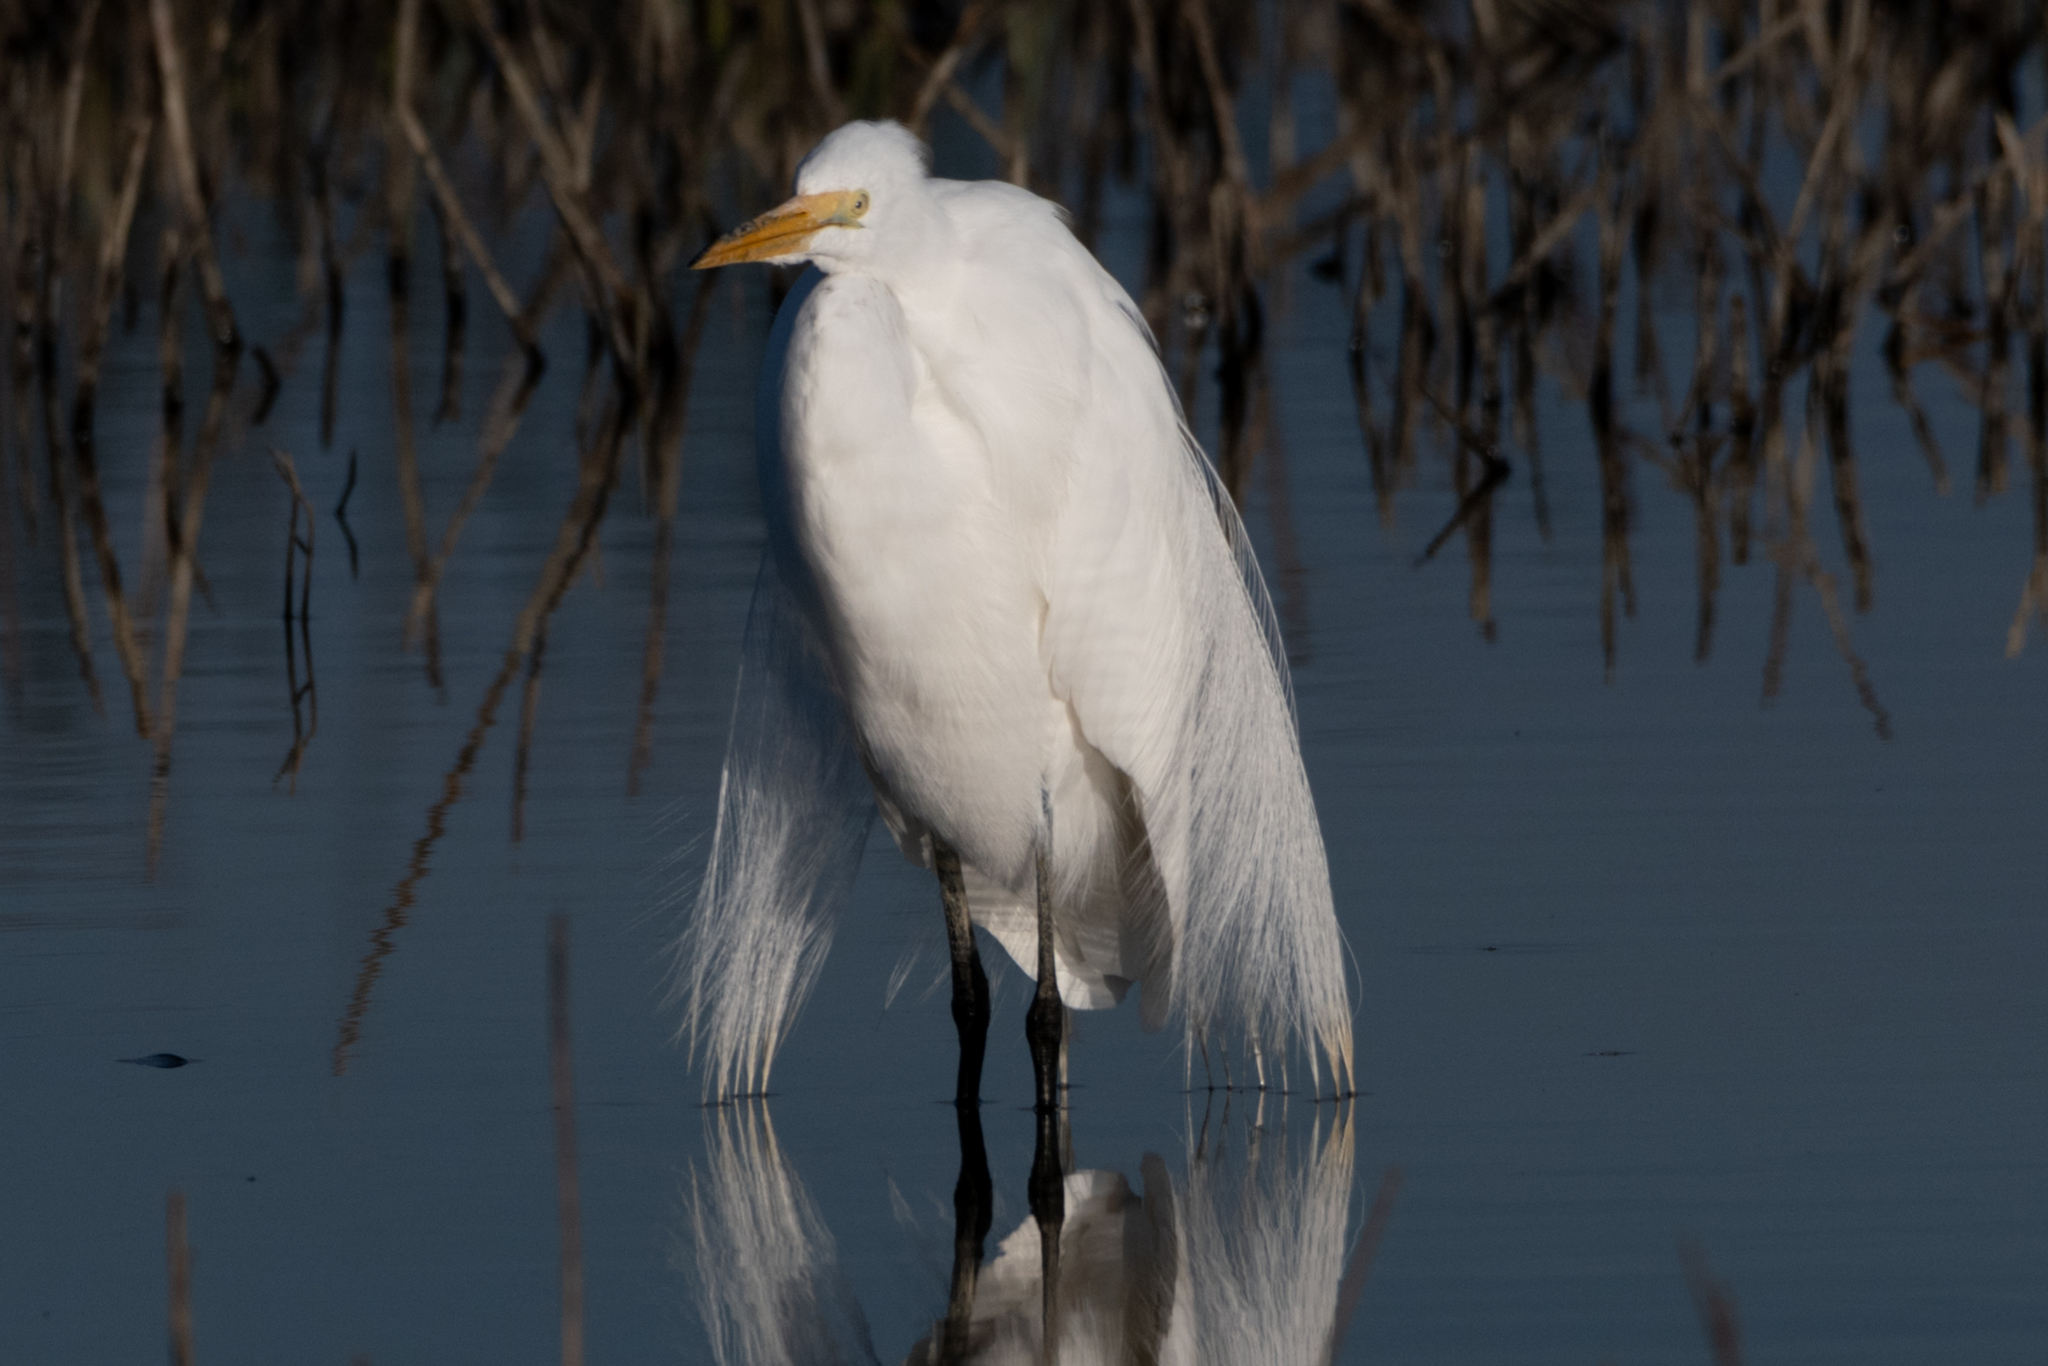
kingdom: Animalia
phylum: Chordata
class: Aves
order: Pelecaniformes
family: Ardeidae
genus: Ardea
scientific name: Ardea alba
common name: Great egret
